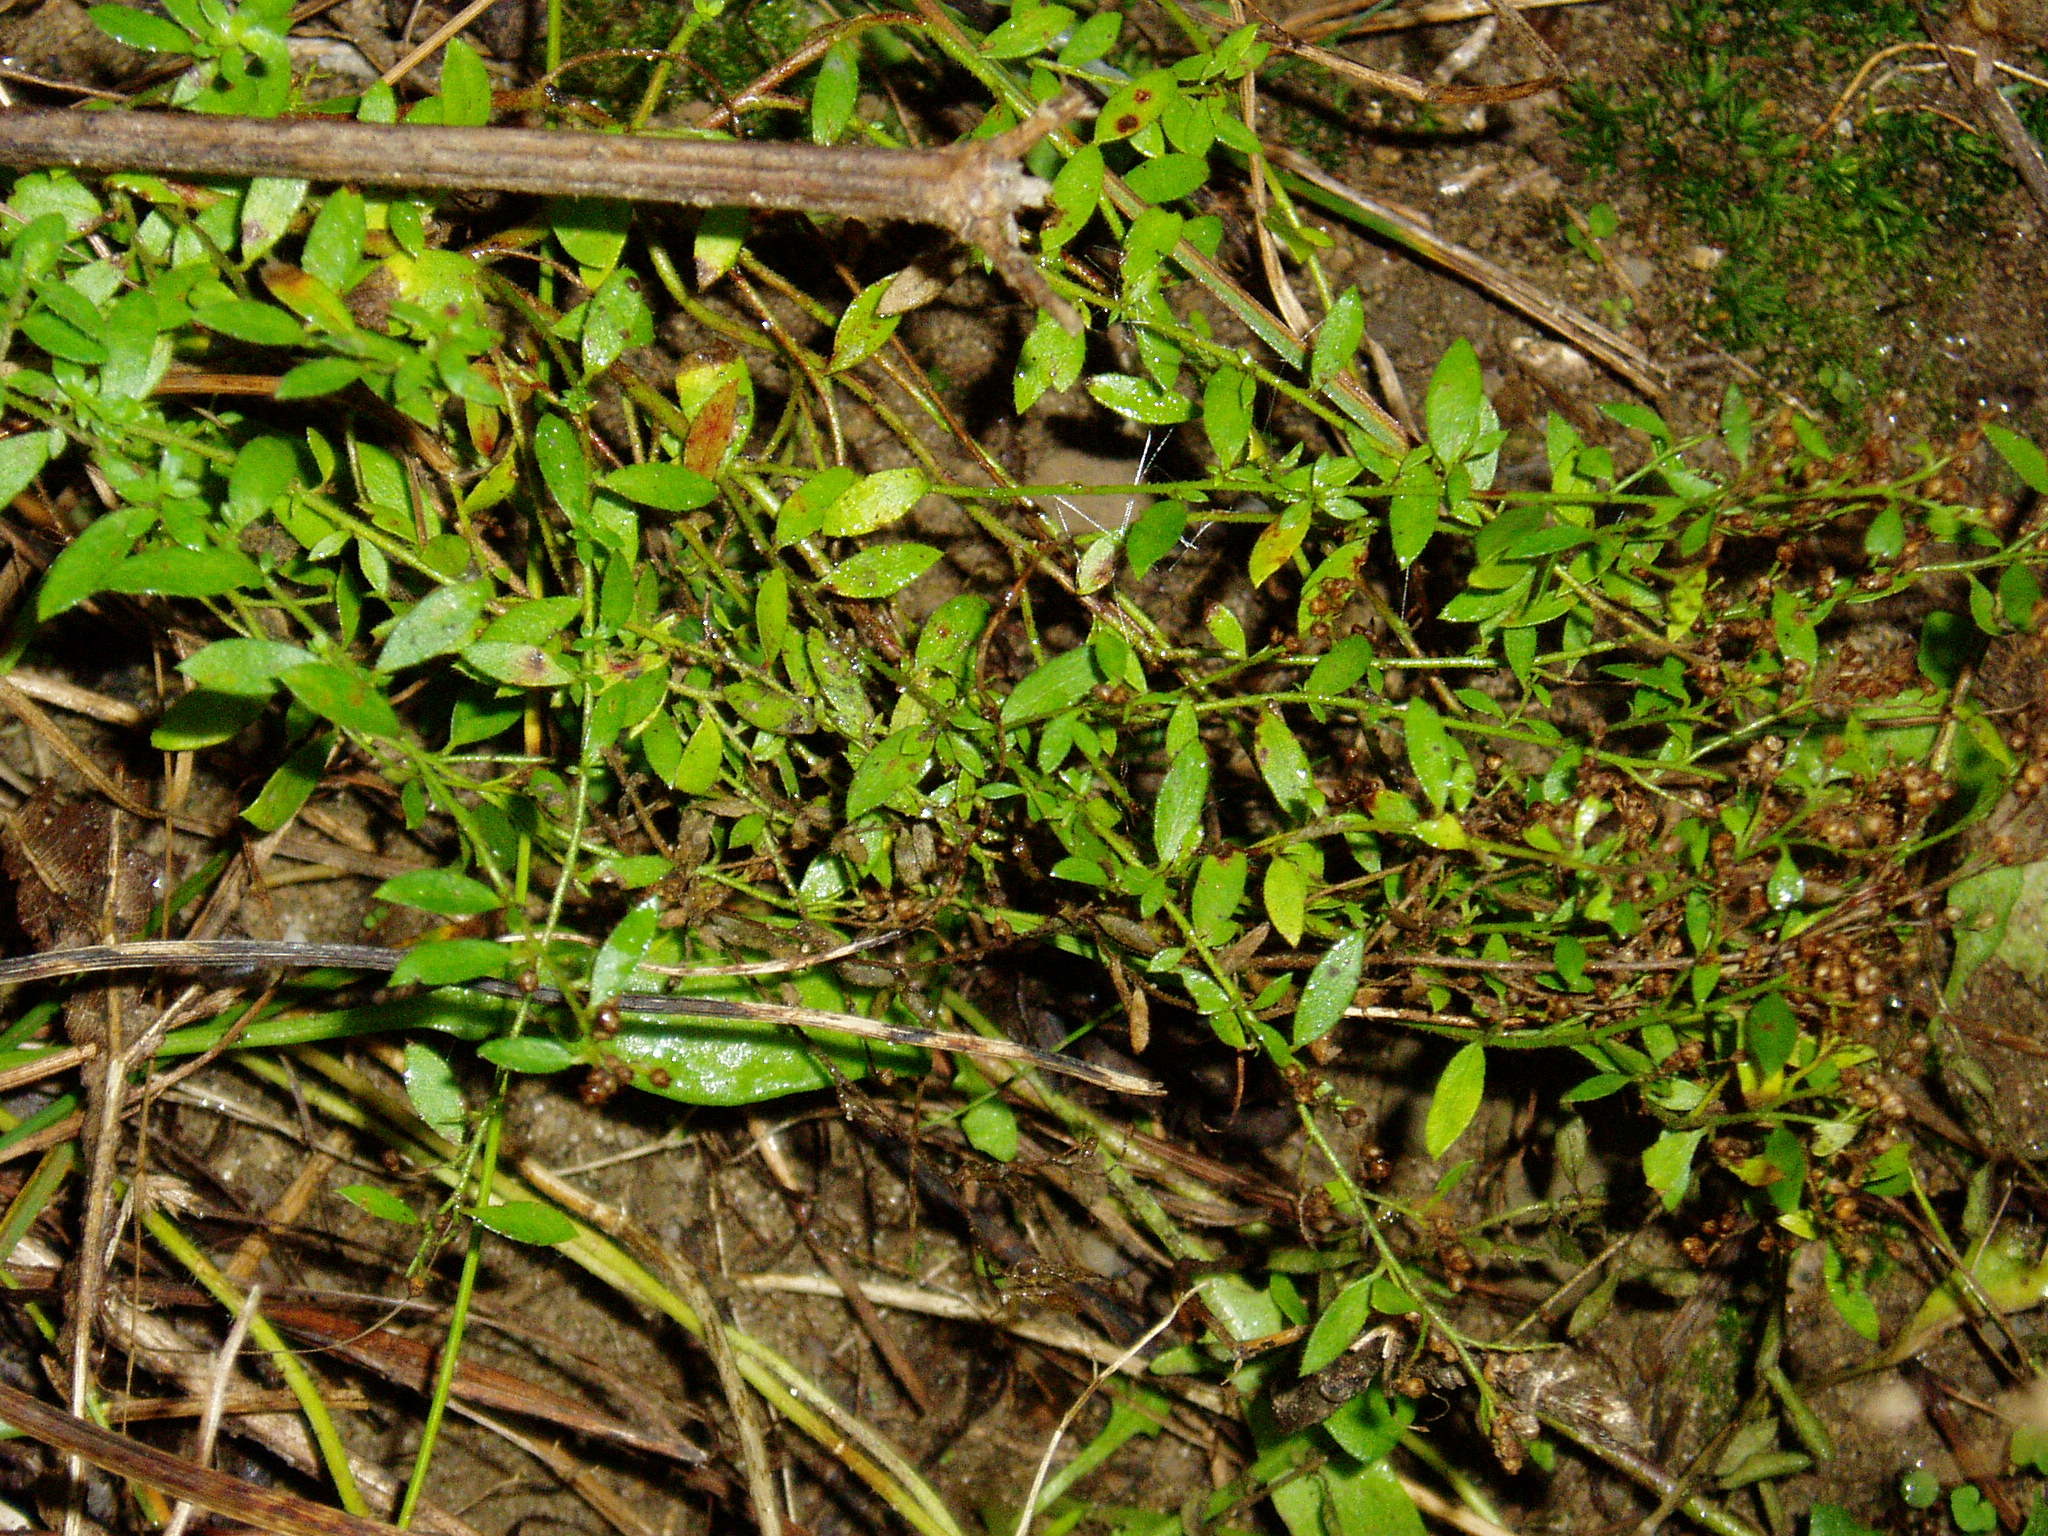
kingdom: Plantae
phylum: Tracheophyta
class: Magnoliopsida
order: Malvales
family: Cistaceae
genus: Lechea
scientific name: Lechea mucronata
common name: Hairy pinweed
